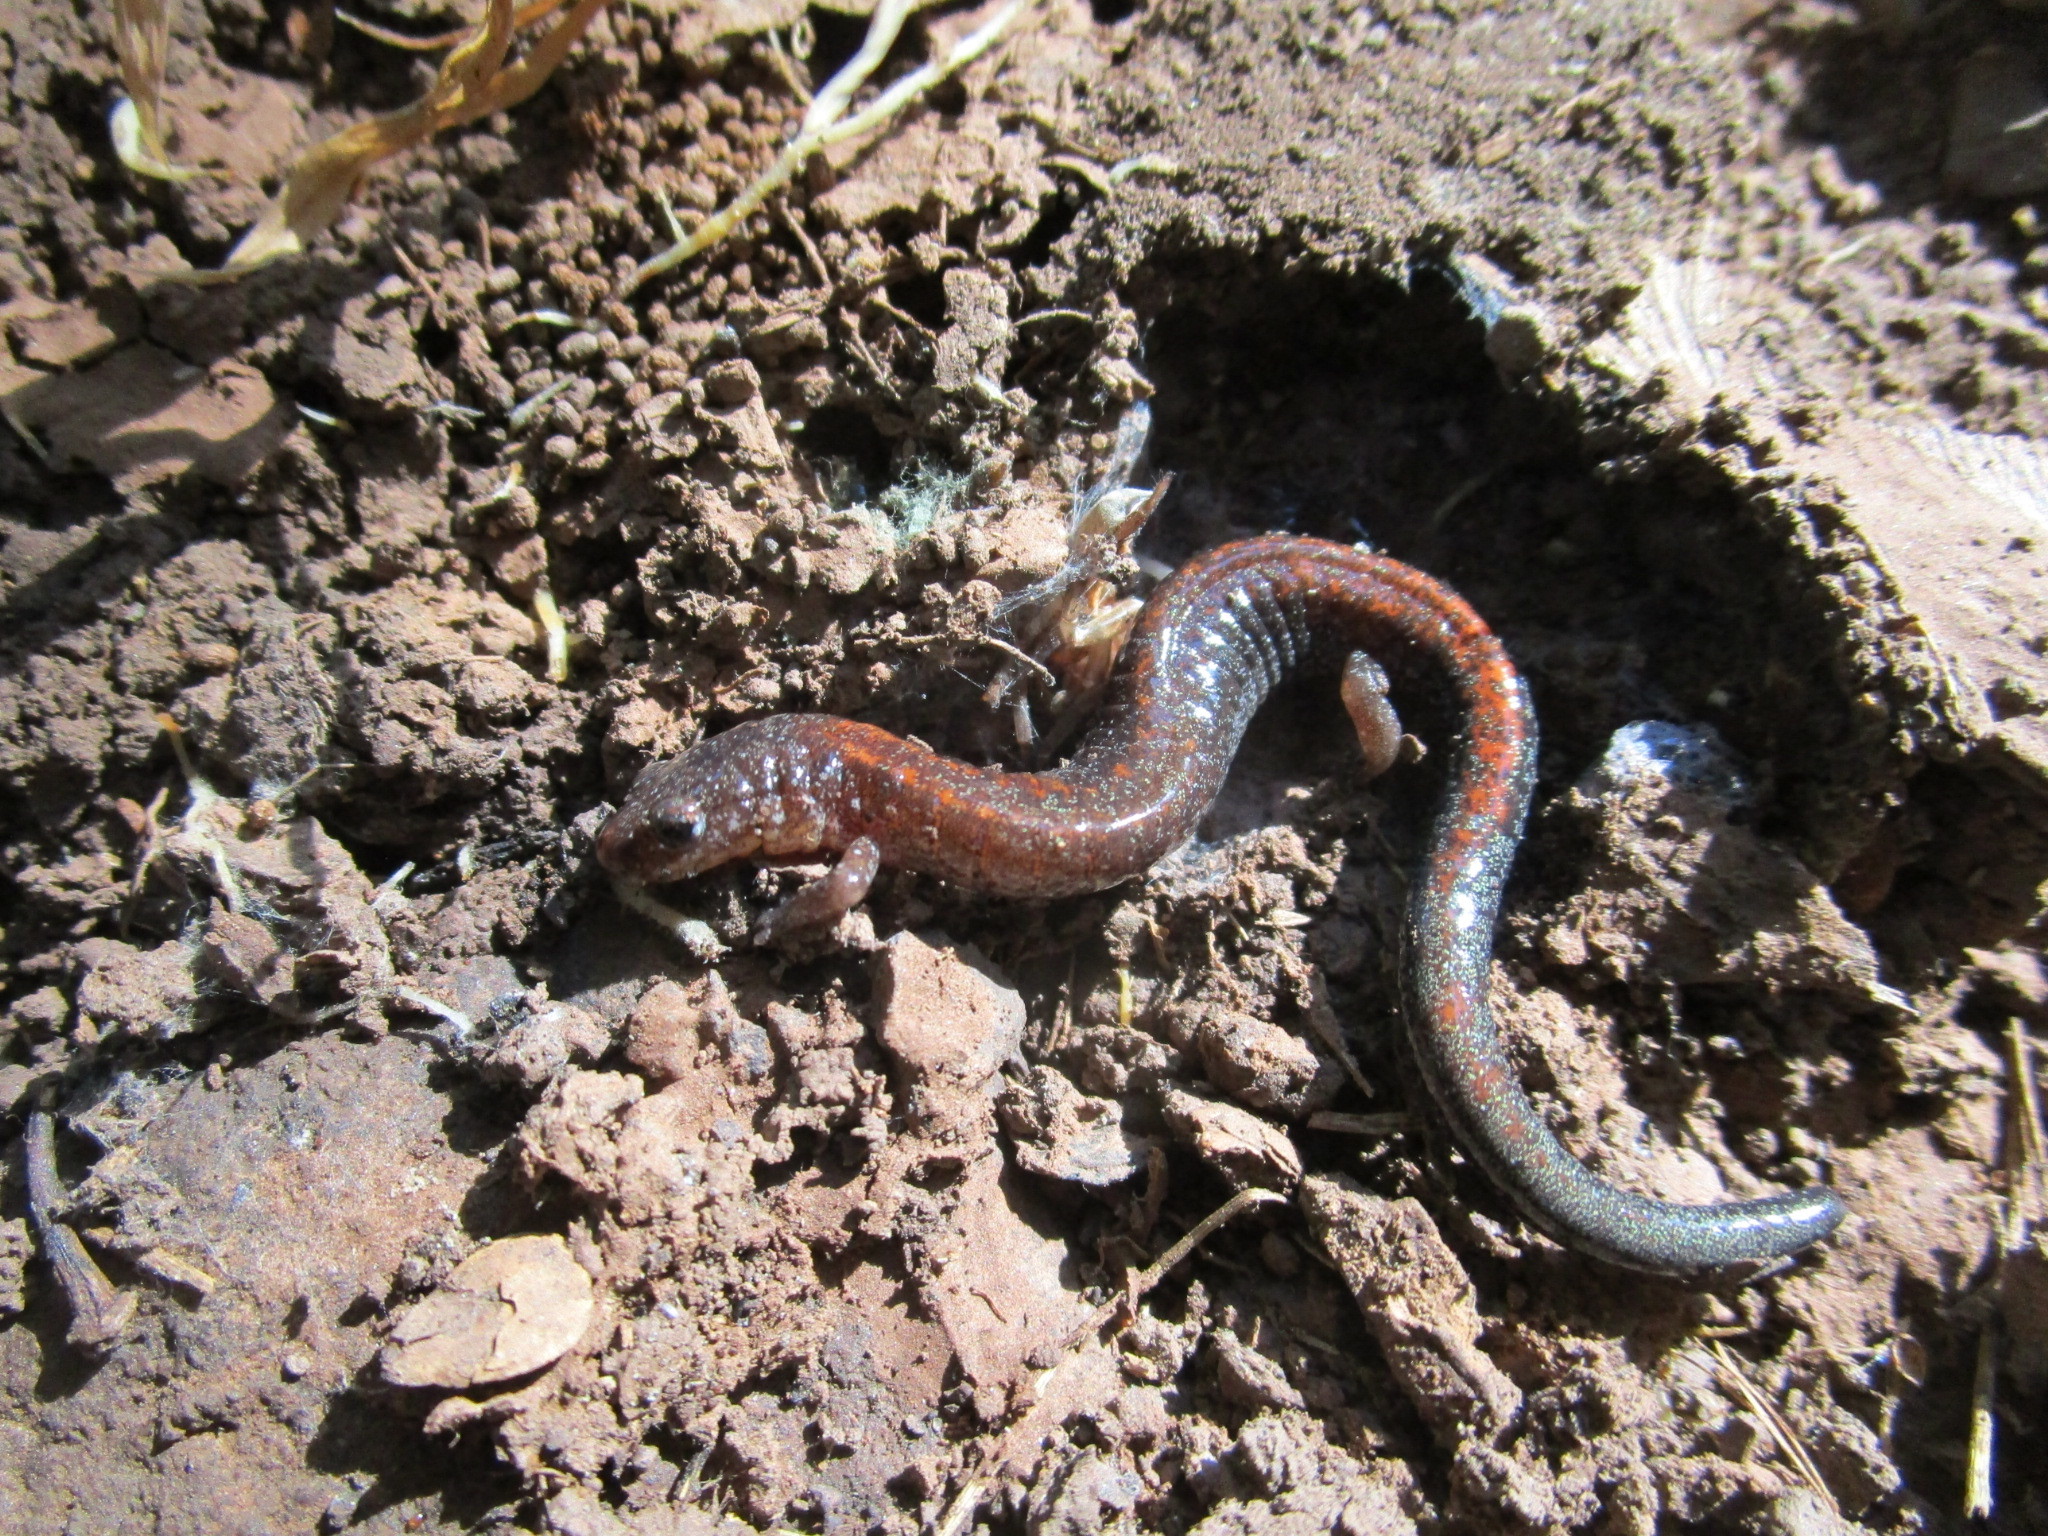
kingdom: Animalia
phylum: Chordata
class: Amphibia
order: Caudata
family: Plethodontidae
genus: Plethodon
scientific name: Plethodon cinereus
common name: Redback salamander
